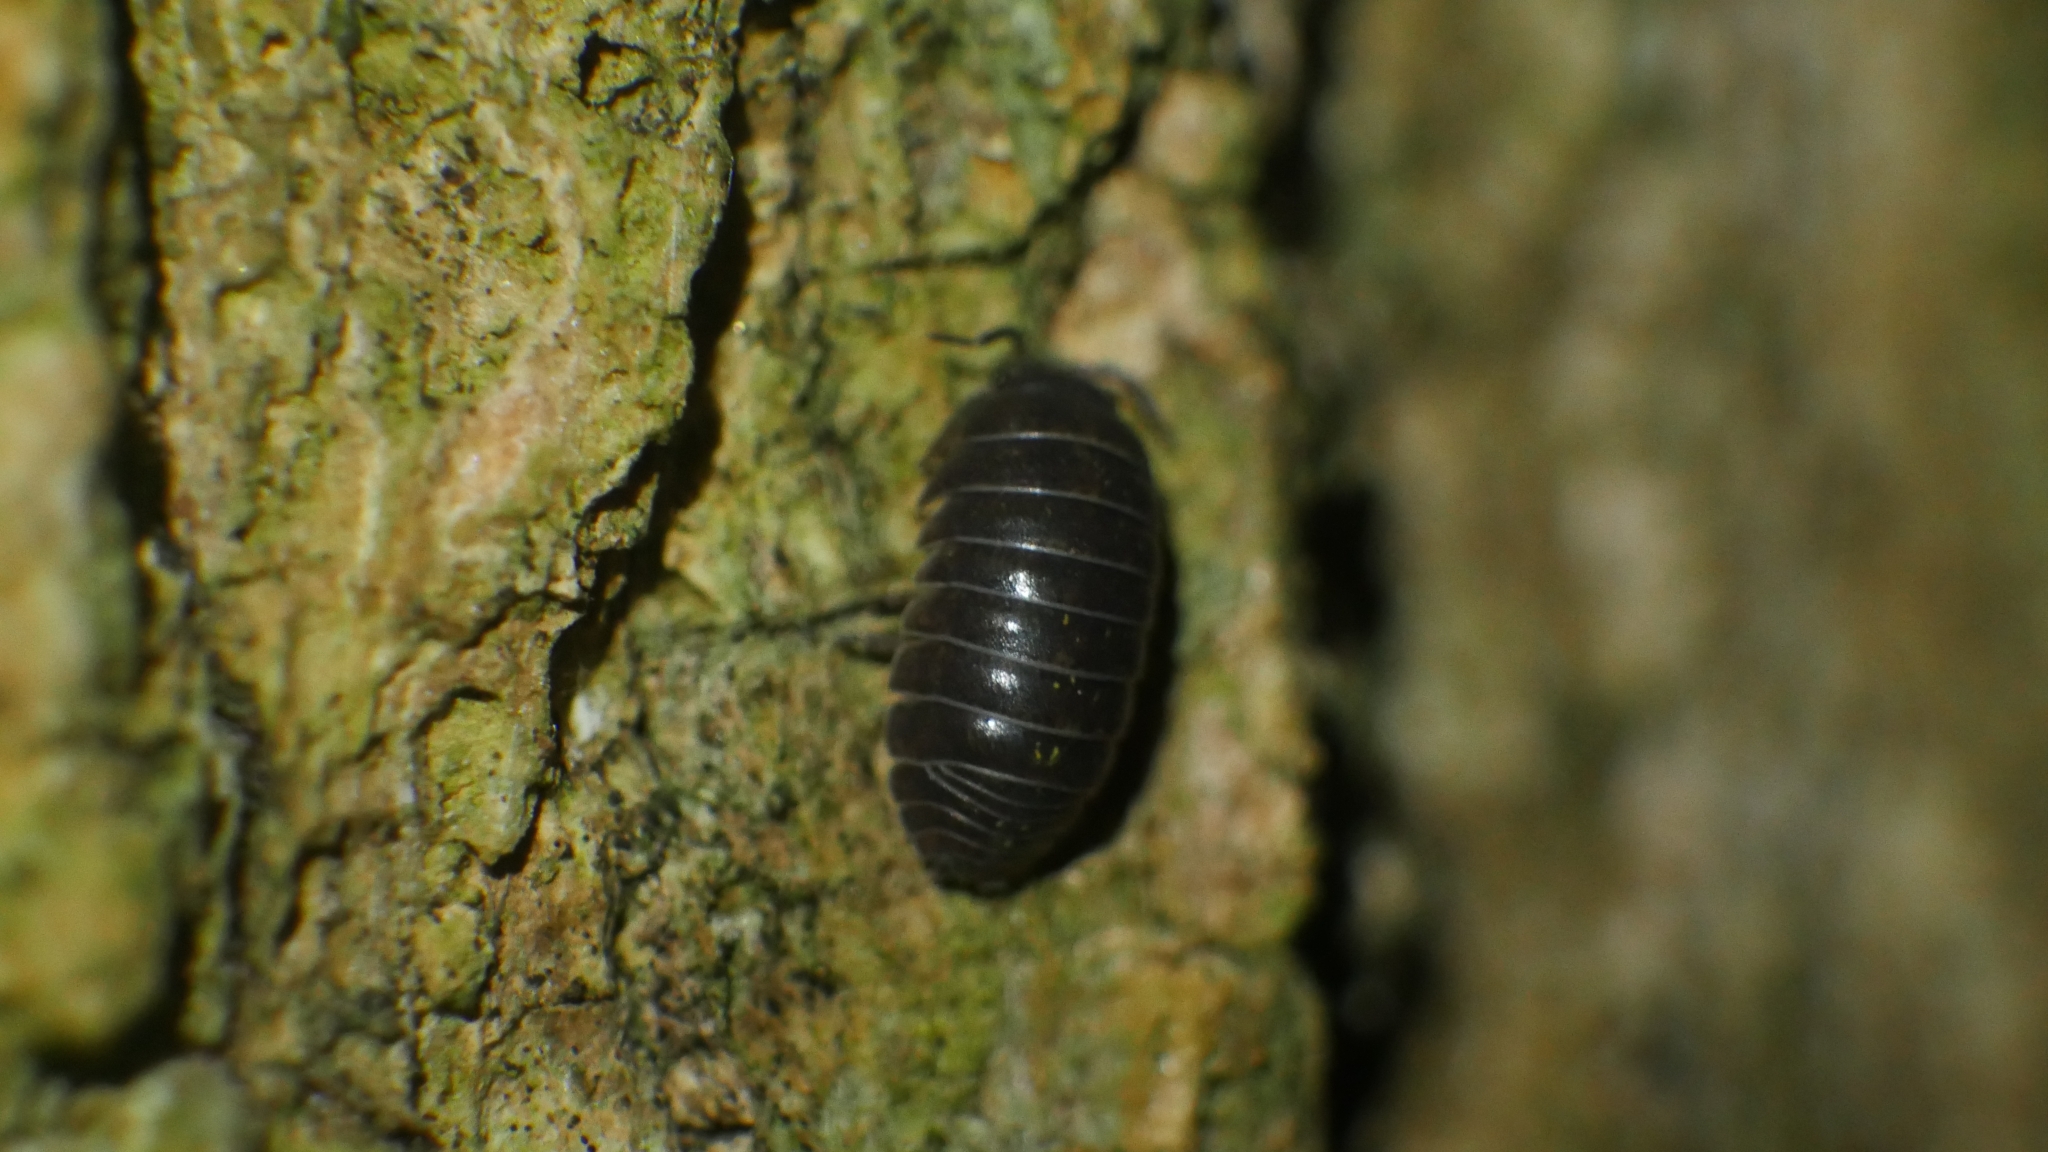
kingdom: Animalia
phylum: Arthropoda
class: Malacostraca
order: Isopoda
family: Armadillidiidae
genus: Armadillidium
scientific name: Armadillidium vulgare
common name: Common pill woodlouse
